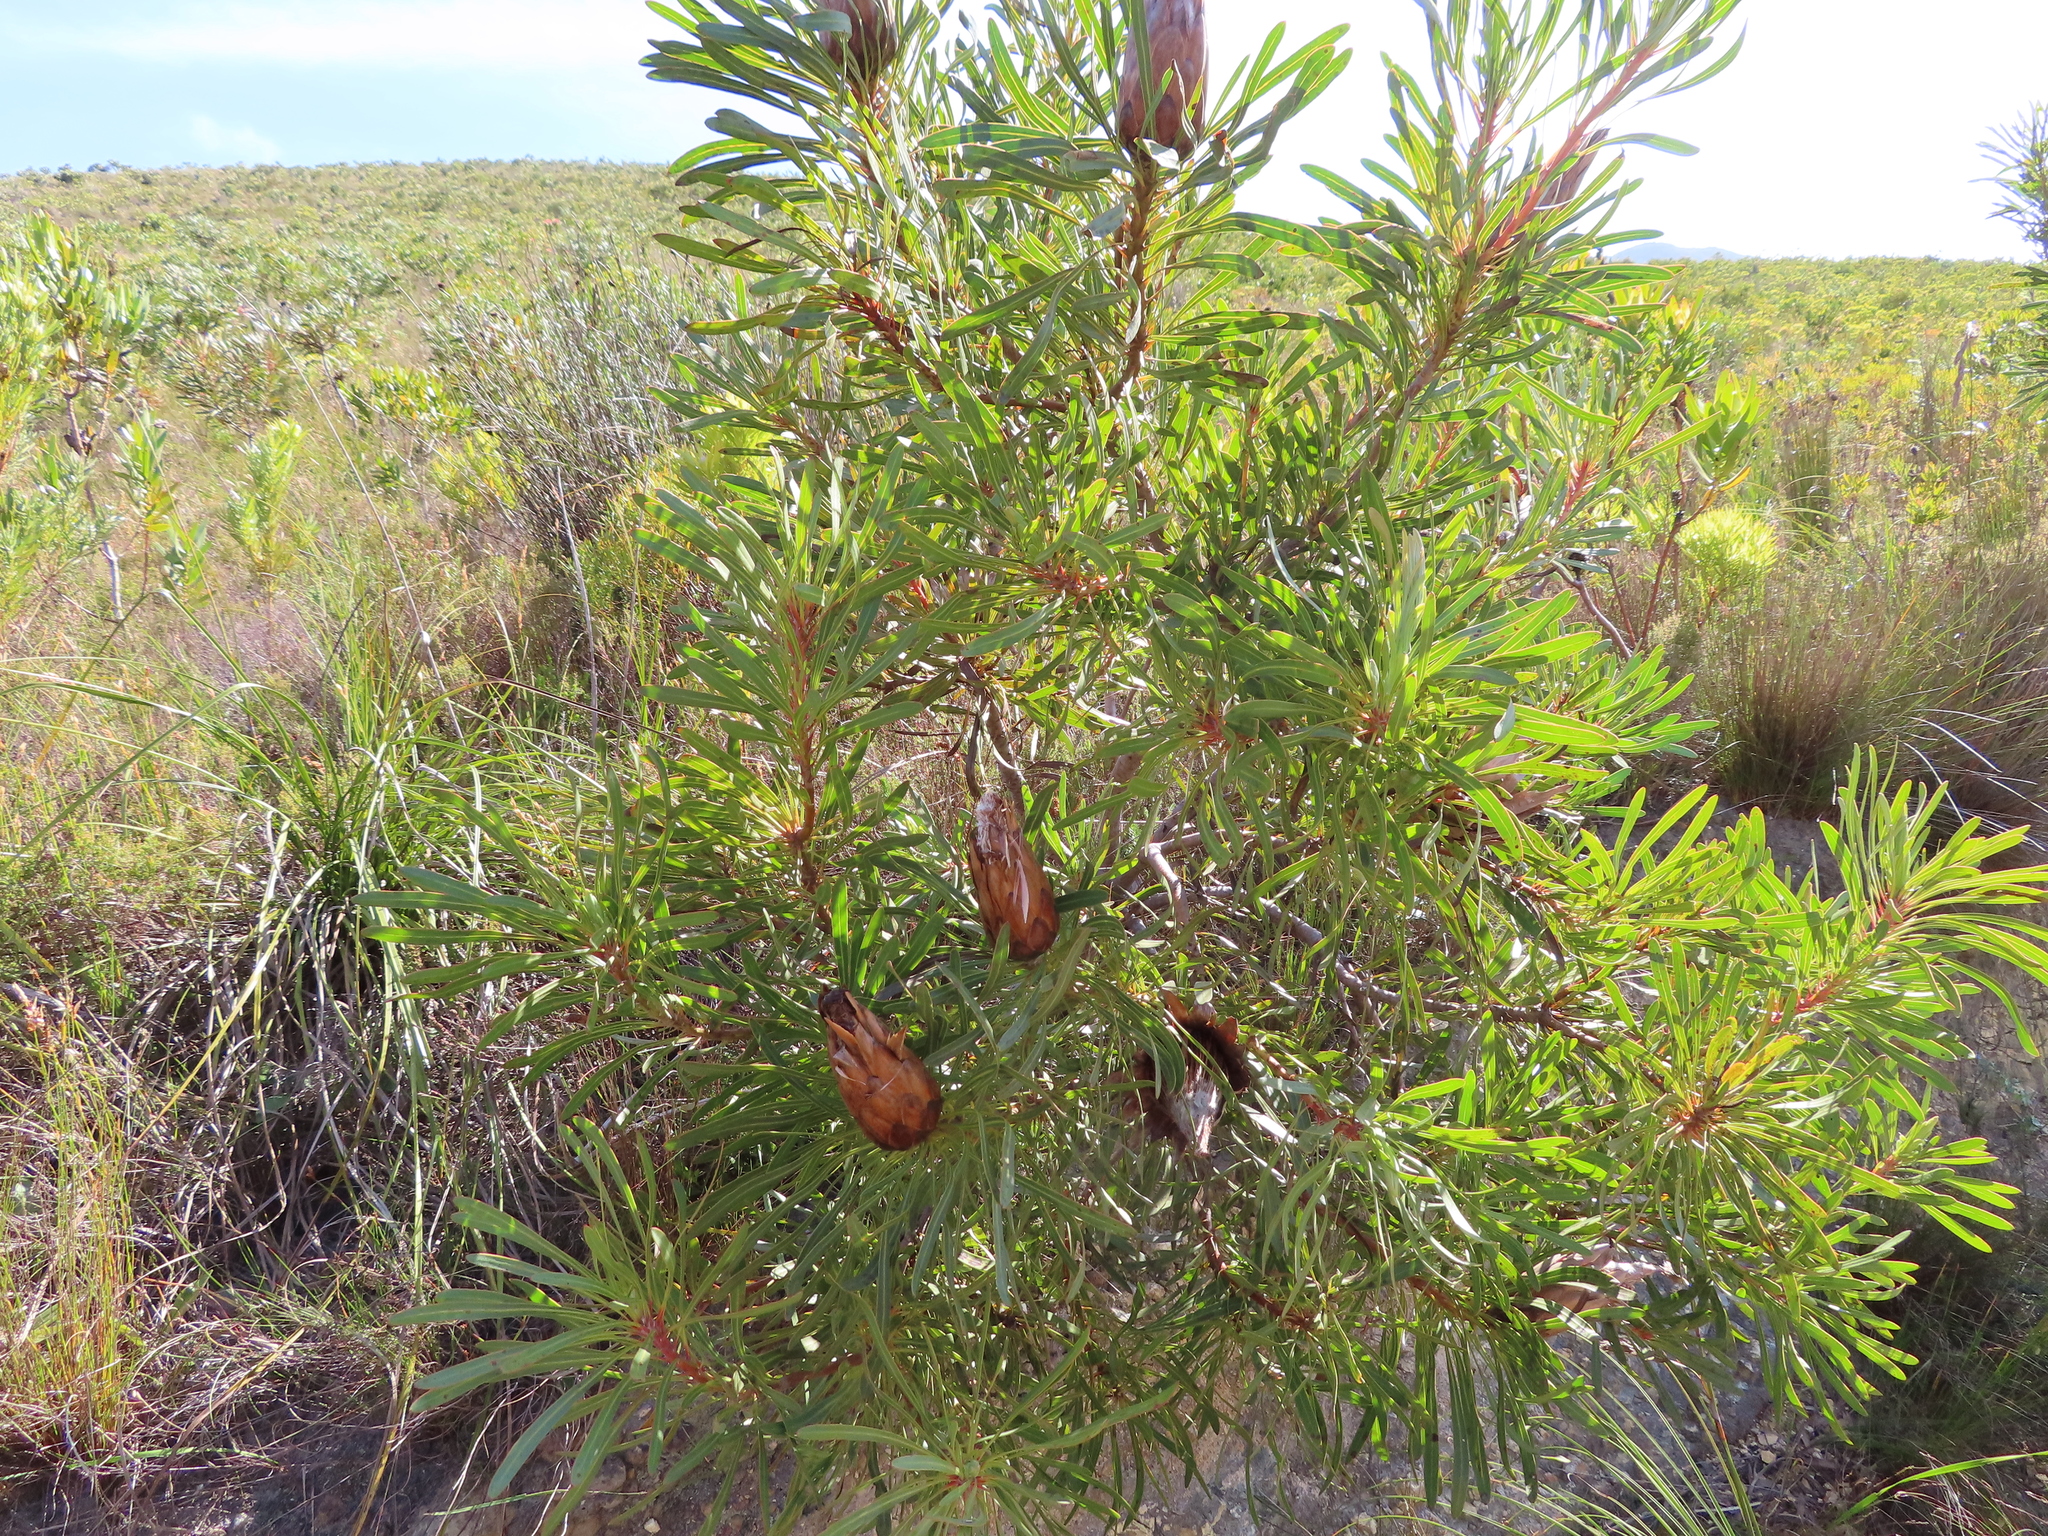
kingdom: Plantae
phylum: Tracheophyta
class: Magnoliopsida
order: Proteales
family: Proteaceae
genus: Protea
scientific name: Protea longifolia
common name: Long-leaf sugarbush
